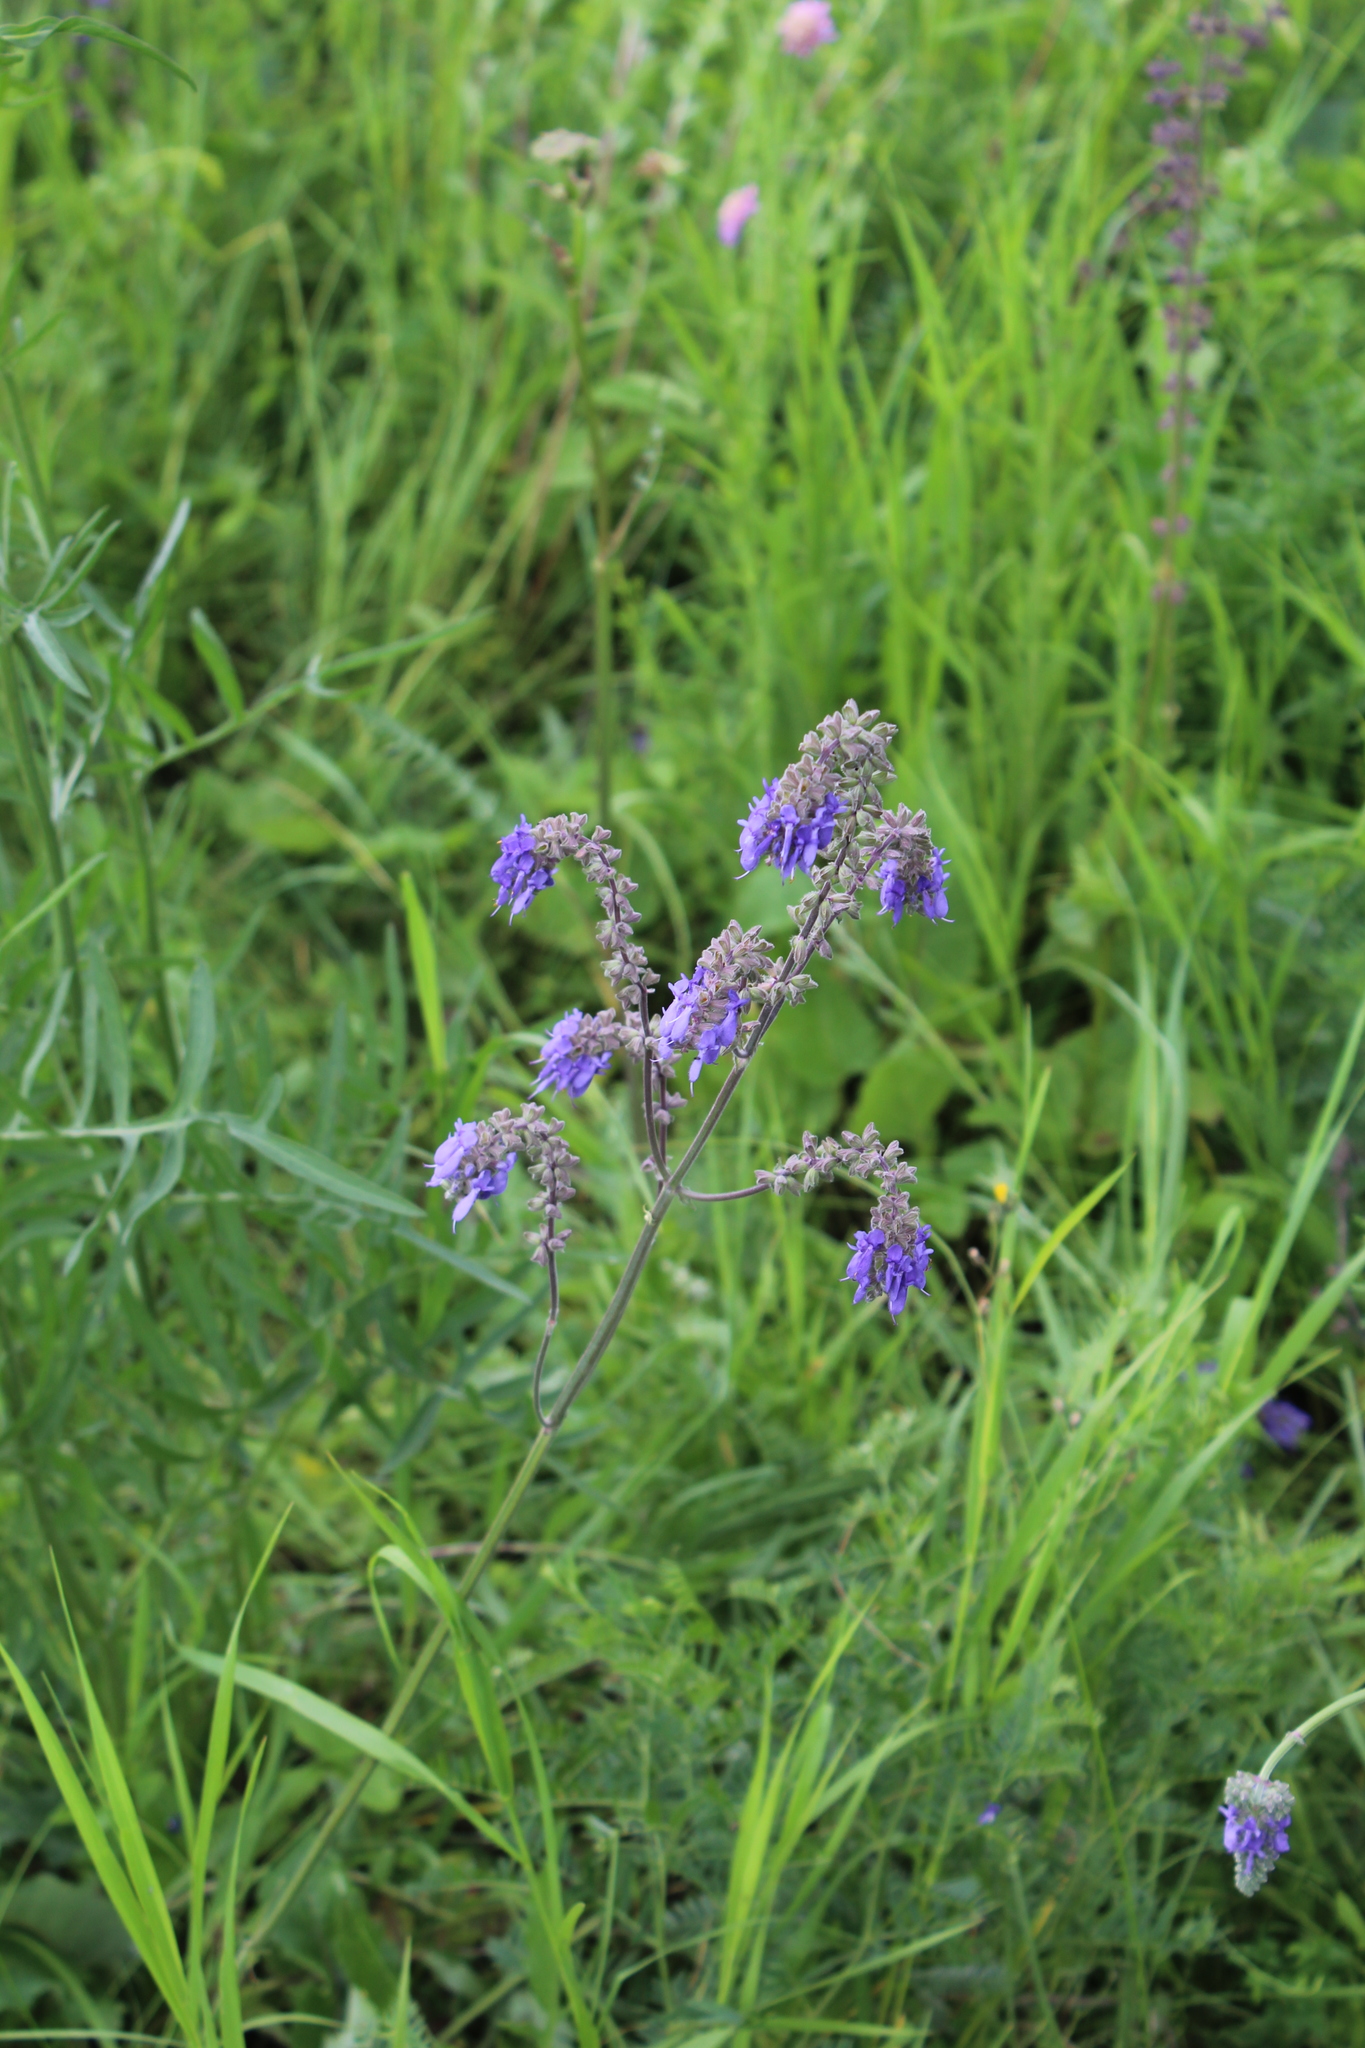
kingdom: Plantae
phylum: Tracheophyta
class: Magnoliopsida
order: Lamiales
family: Lamiaceae
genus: Salvia
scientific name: Salvia nutans
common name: Nodding sage
